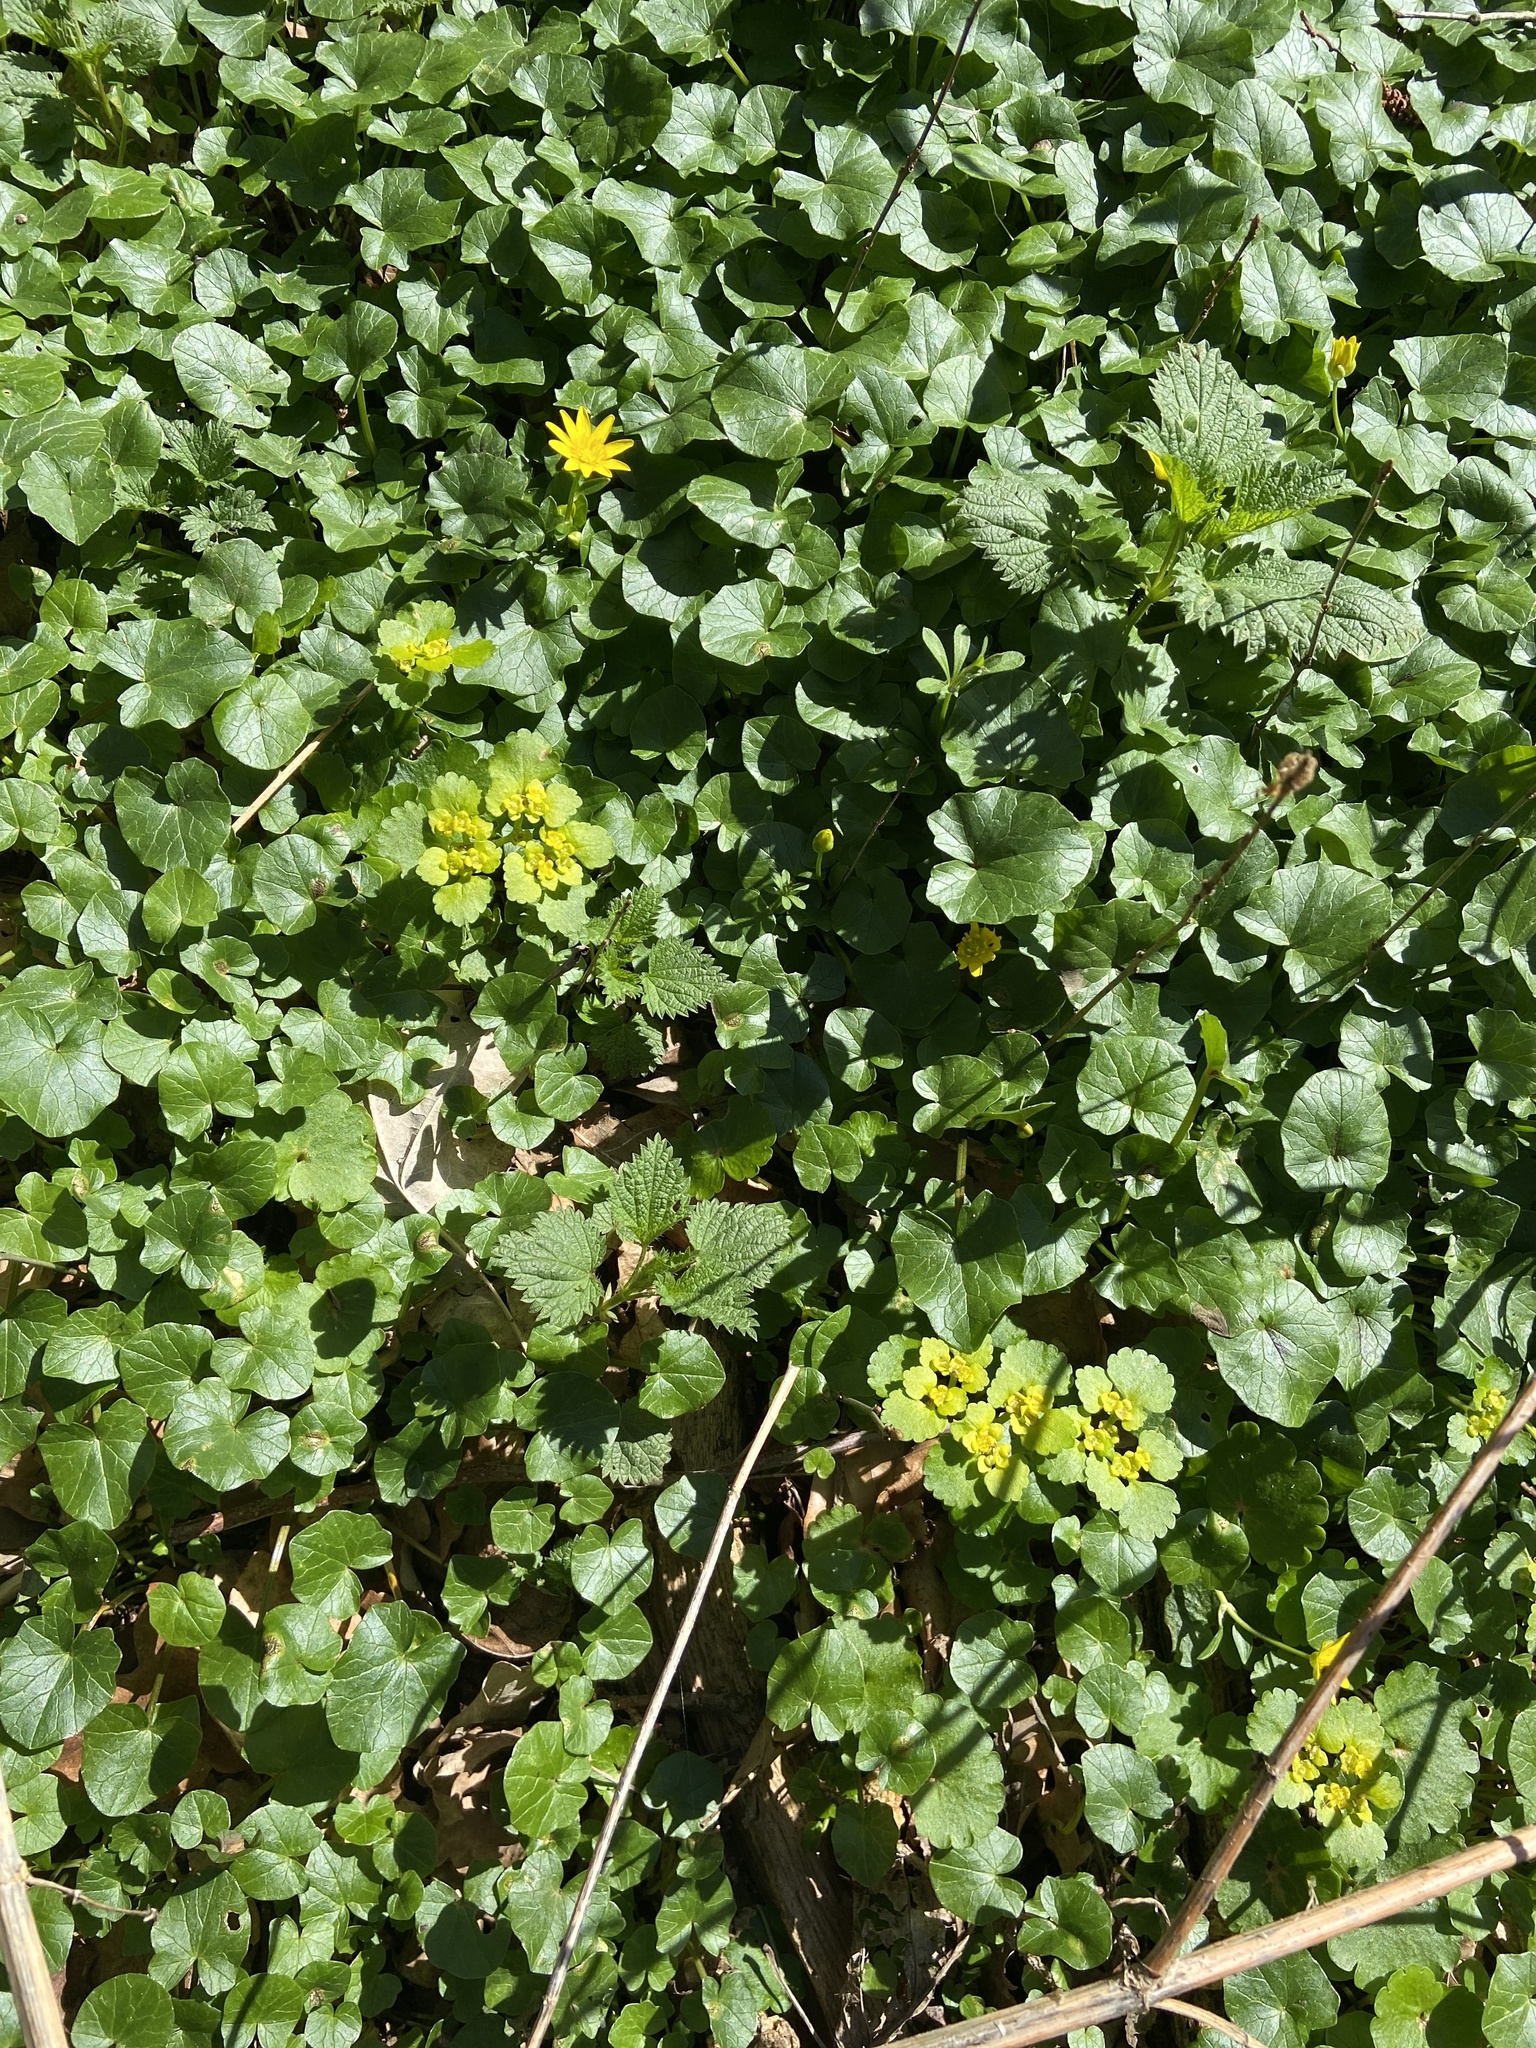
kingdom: Plantae
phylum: Tracheophyta
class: Magnoliopsida
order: Saxifragales
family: Saxifragaceae
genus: Chrysosplenium
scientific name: Chrysosplenium alternifolium
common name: Alternate-leaved golden-saxifrage
